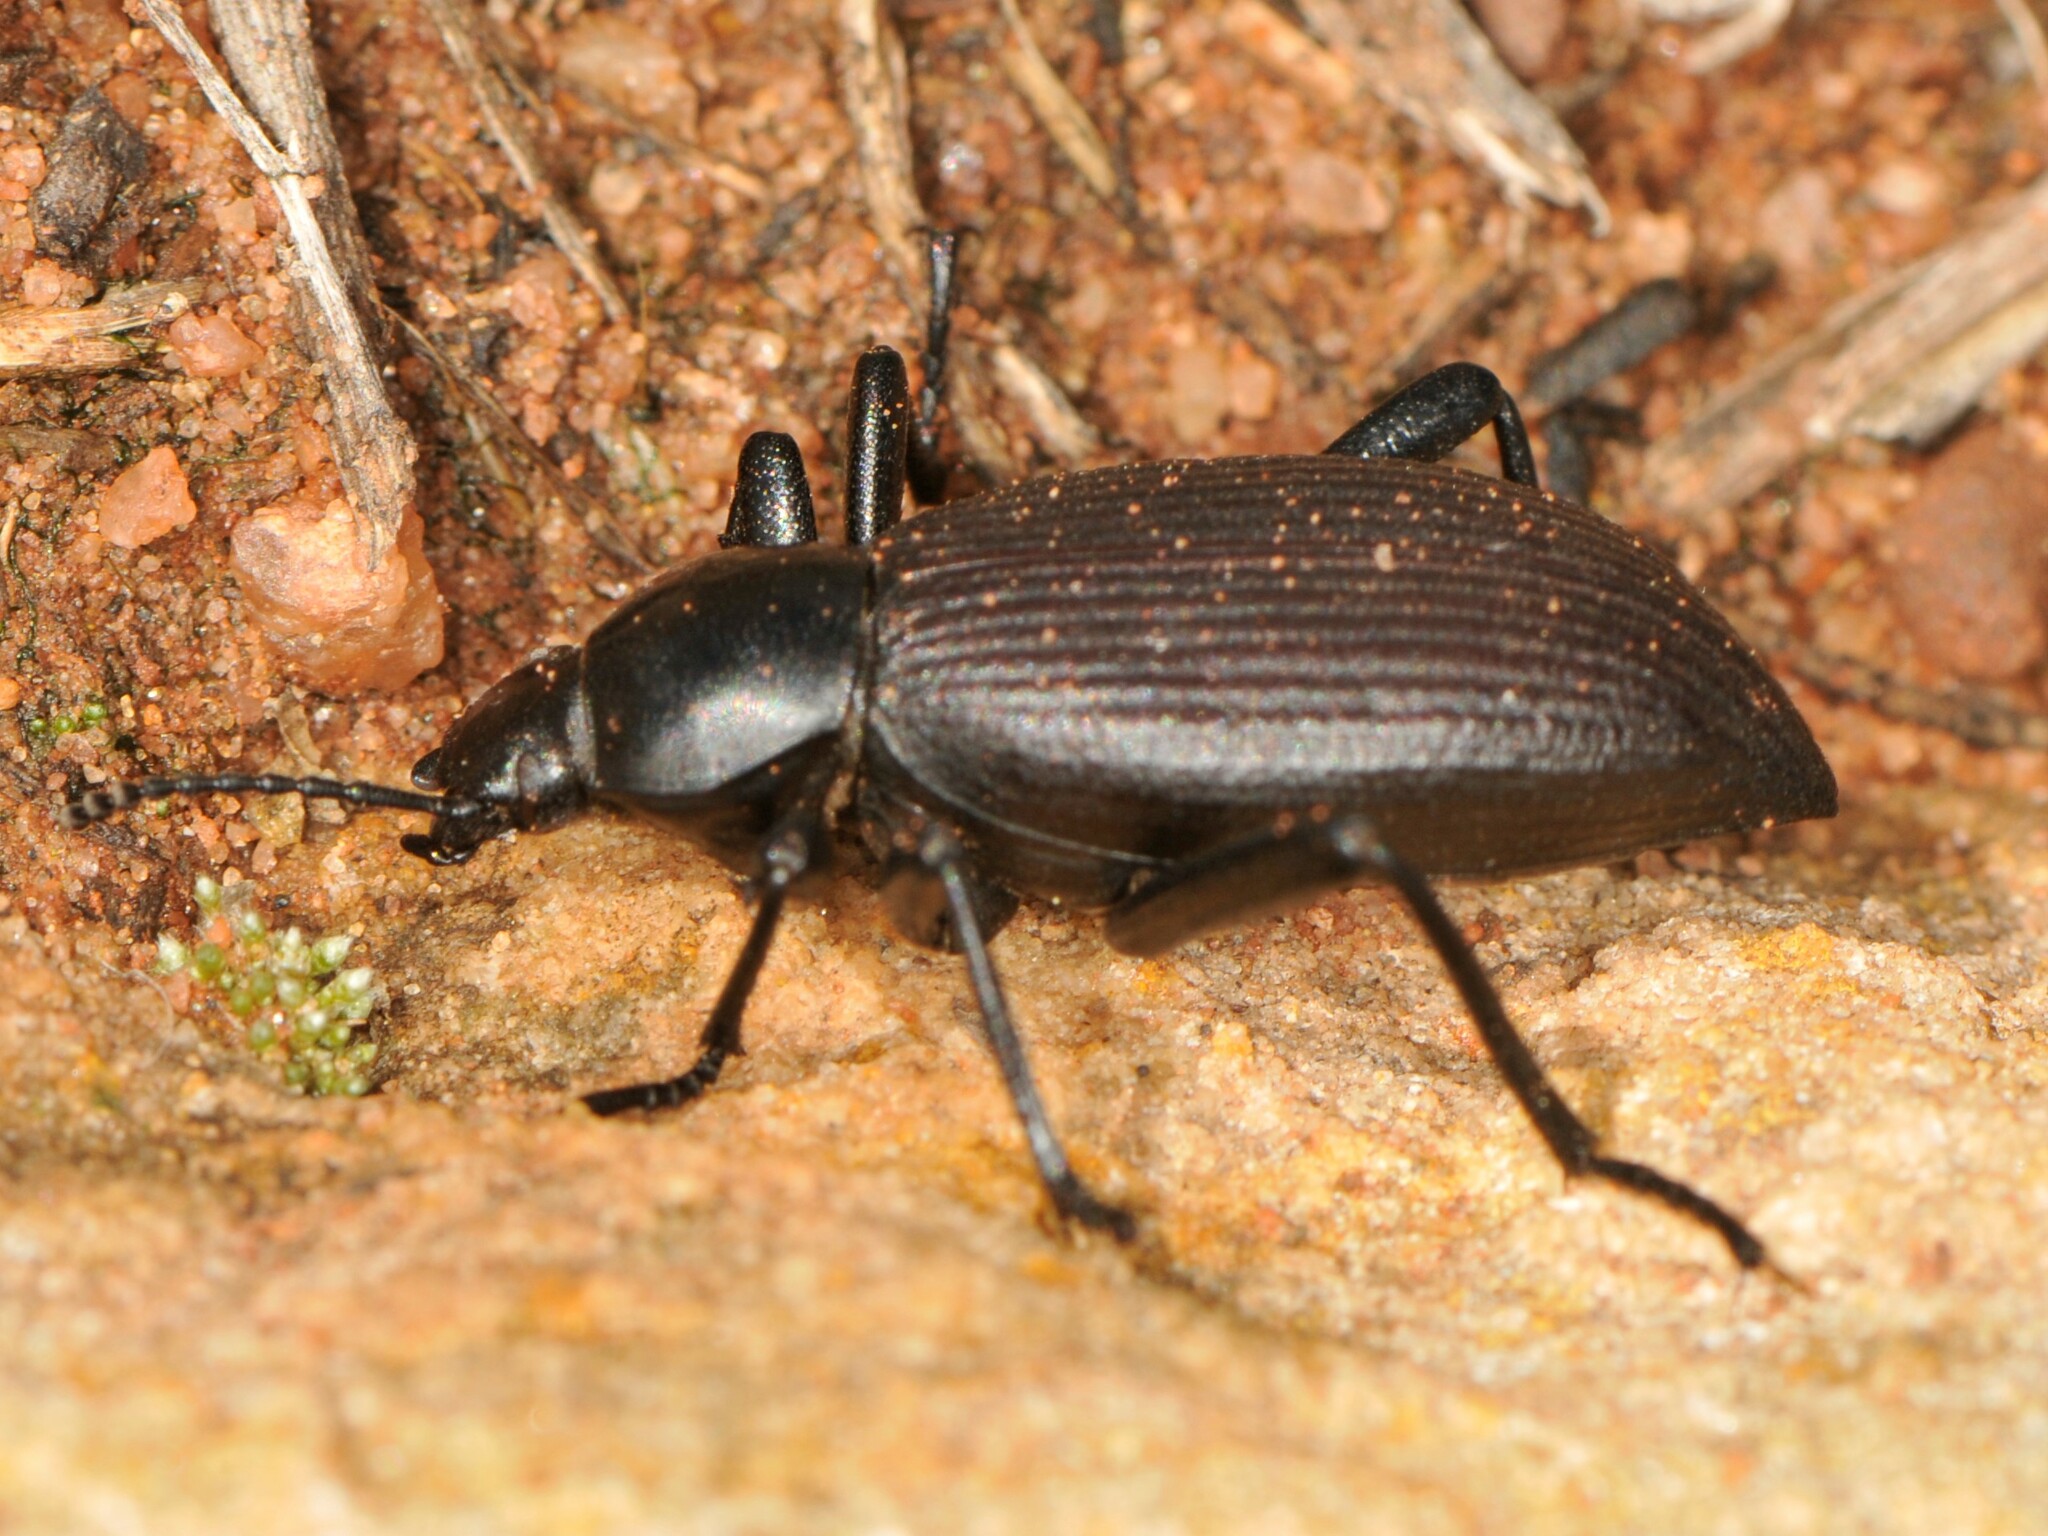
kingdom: Animalia
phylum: Arthropoda
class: Insecta
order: Coleoptera
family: Tenebrionidae
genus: Eleodes
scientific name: Eleodes hispilabris
